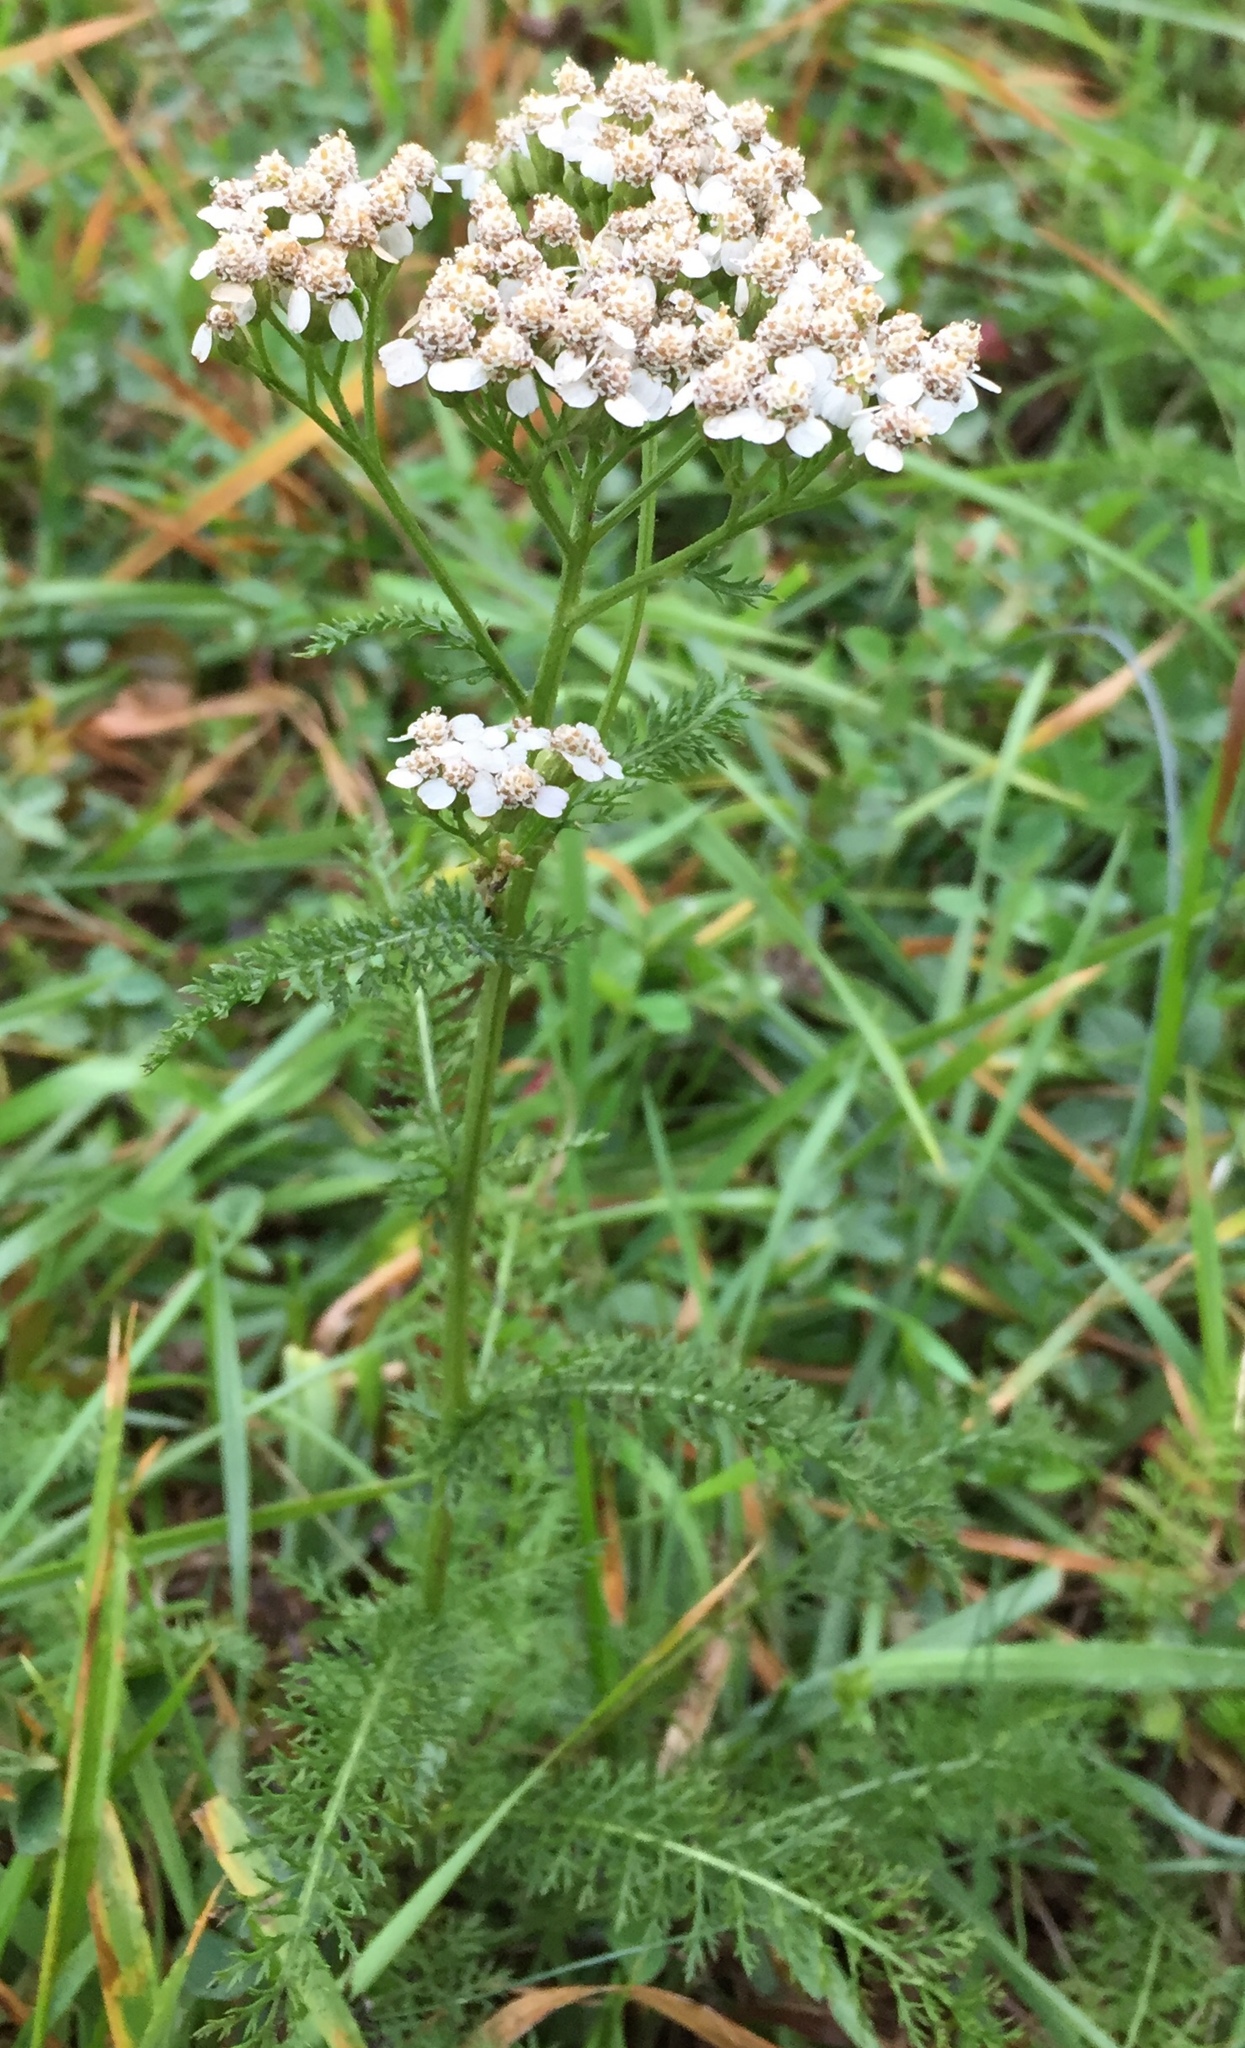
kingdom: Plantae
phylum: Tracheophyta
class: Magnoliopsida
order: Asterales
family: Asteraceae
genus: Achillea
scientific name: Achillea millefolium
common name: Yarrow
